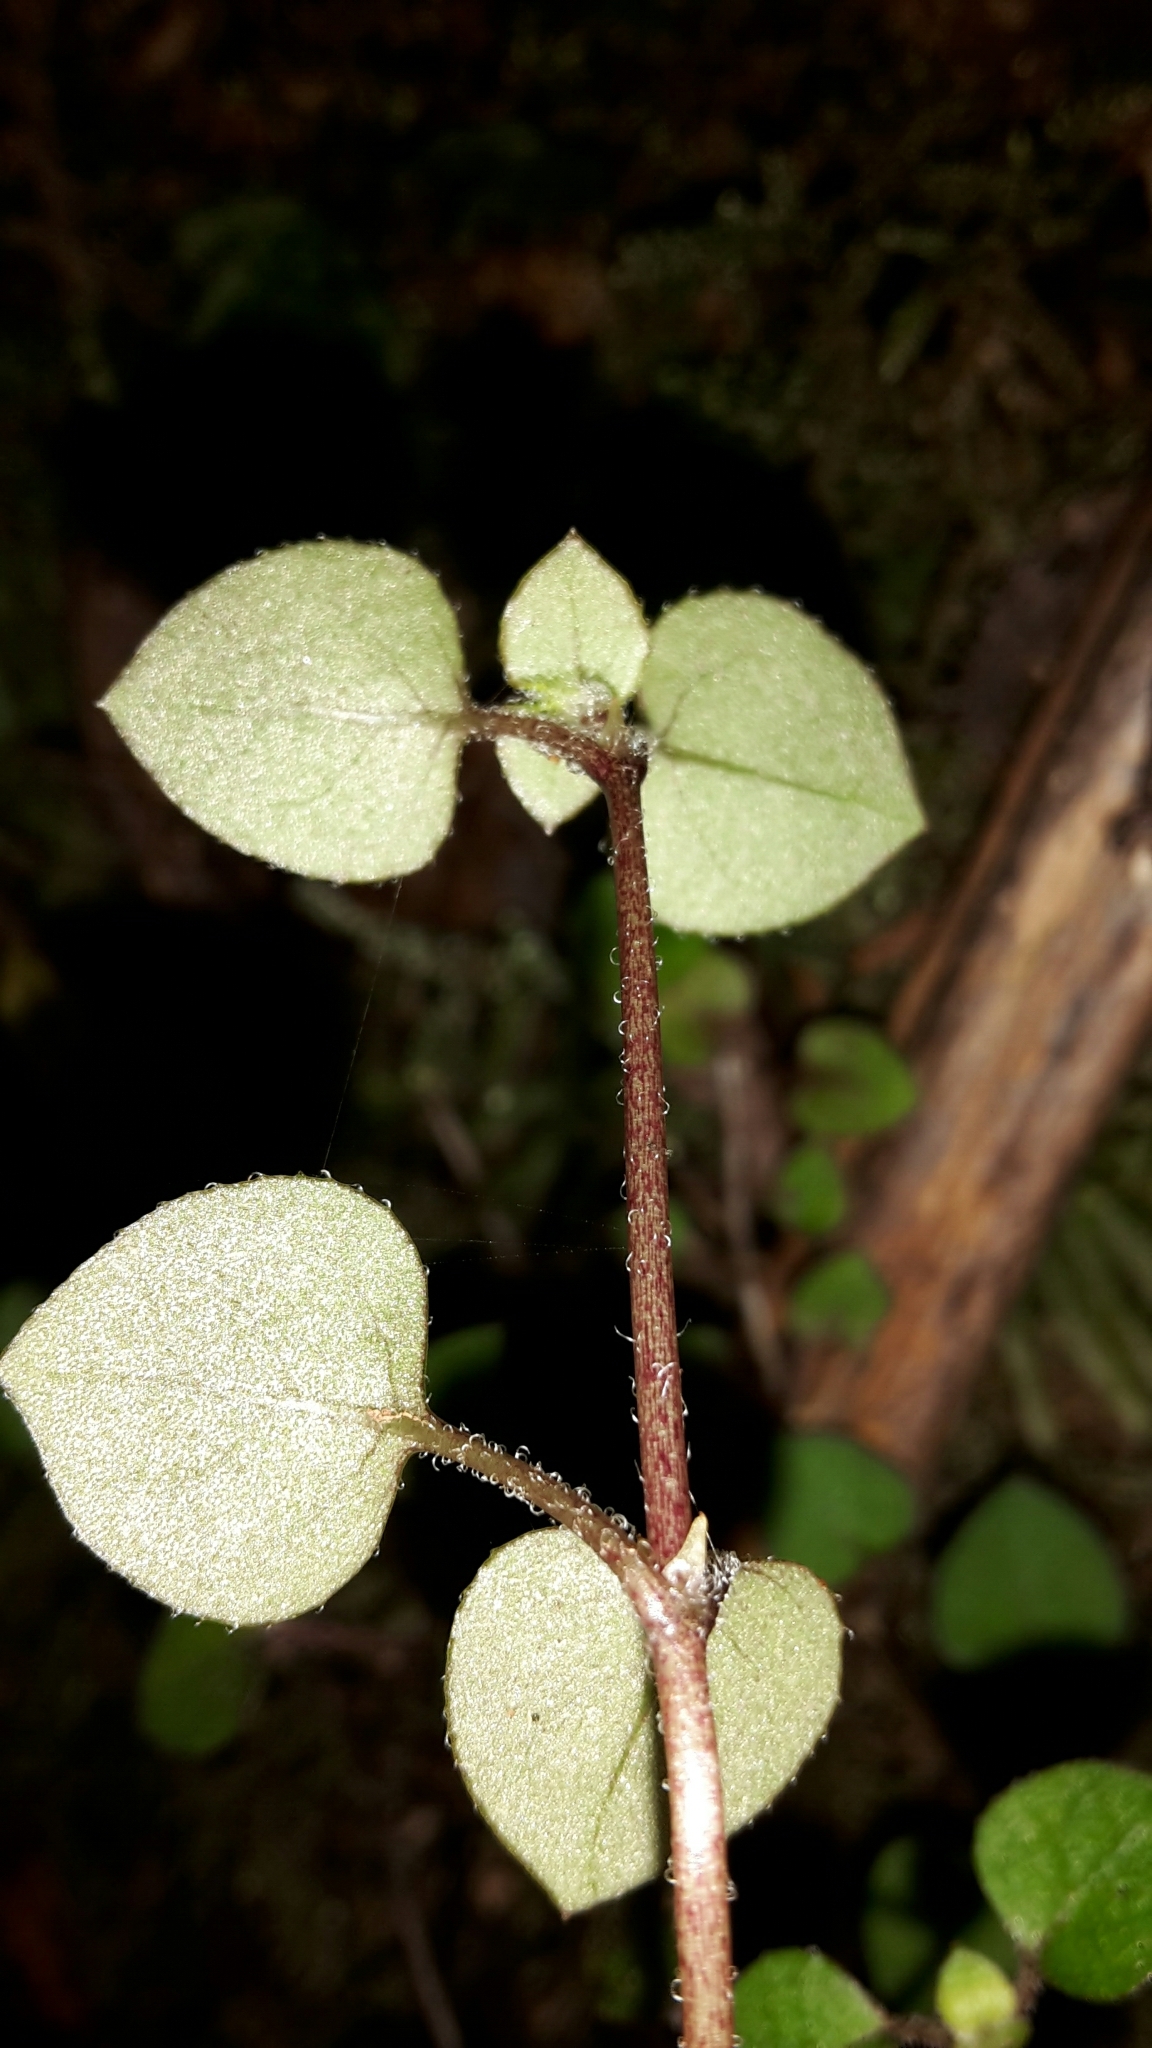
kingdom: Plantae
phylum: Tracheophyta
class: Magnoliopsida
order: Gentianales
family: Rubiaceae
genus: Nertera
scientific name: Nertera dichondrifolia
